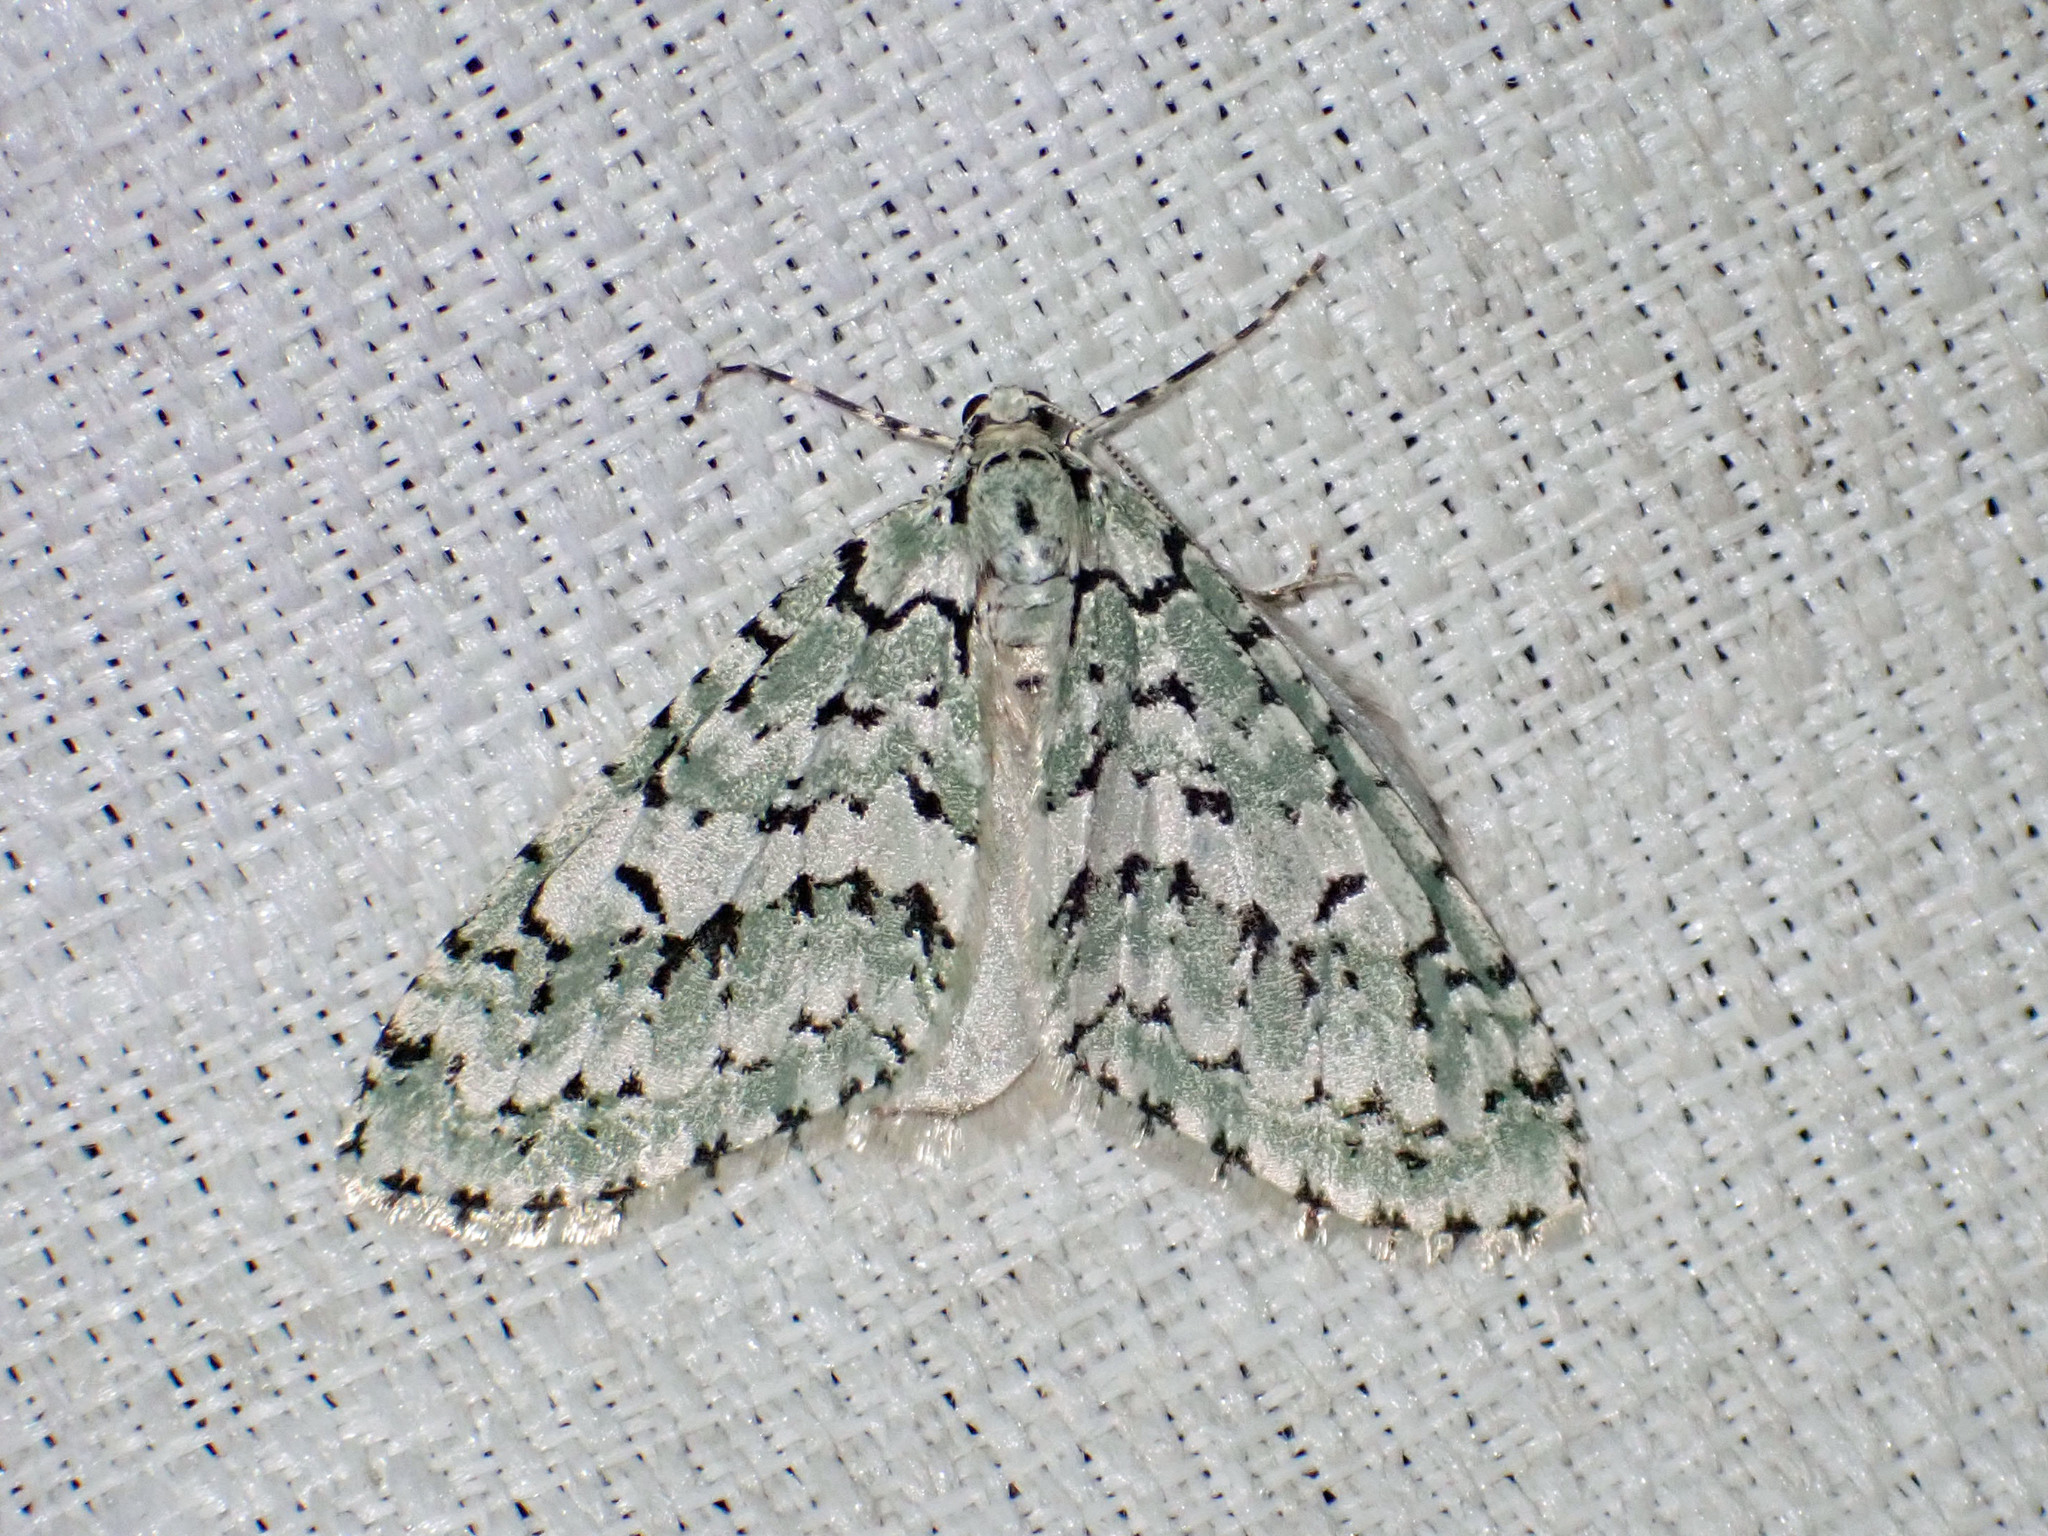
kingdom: Animalia
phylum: Arthropoda
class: Insecta
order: Lepidoptera
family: Geometridae
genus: Cladara
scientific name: Cladara atroliturata
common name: Scribbler
